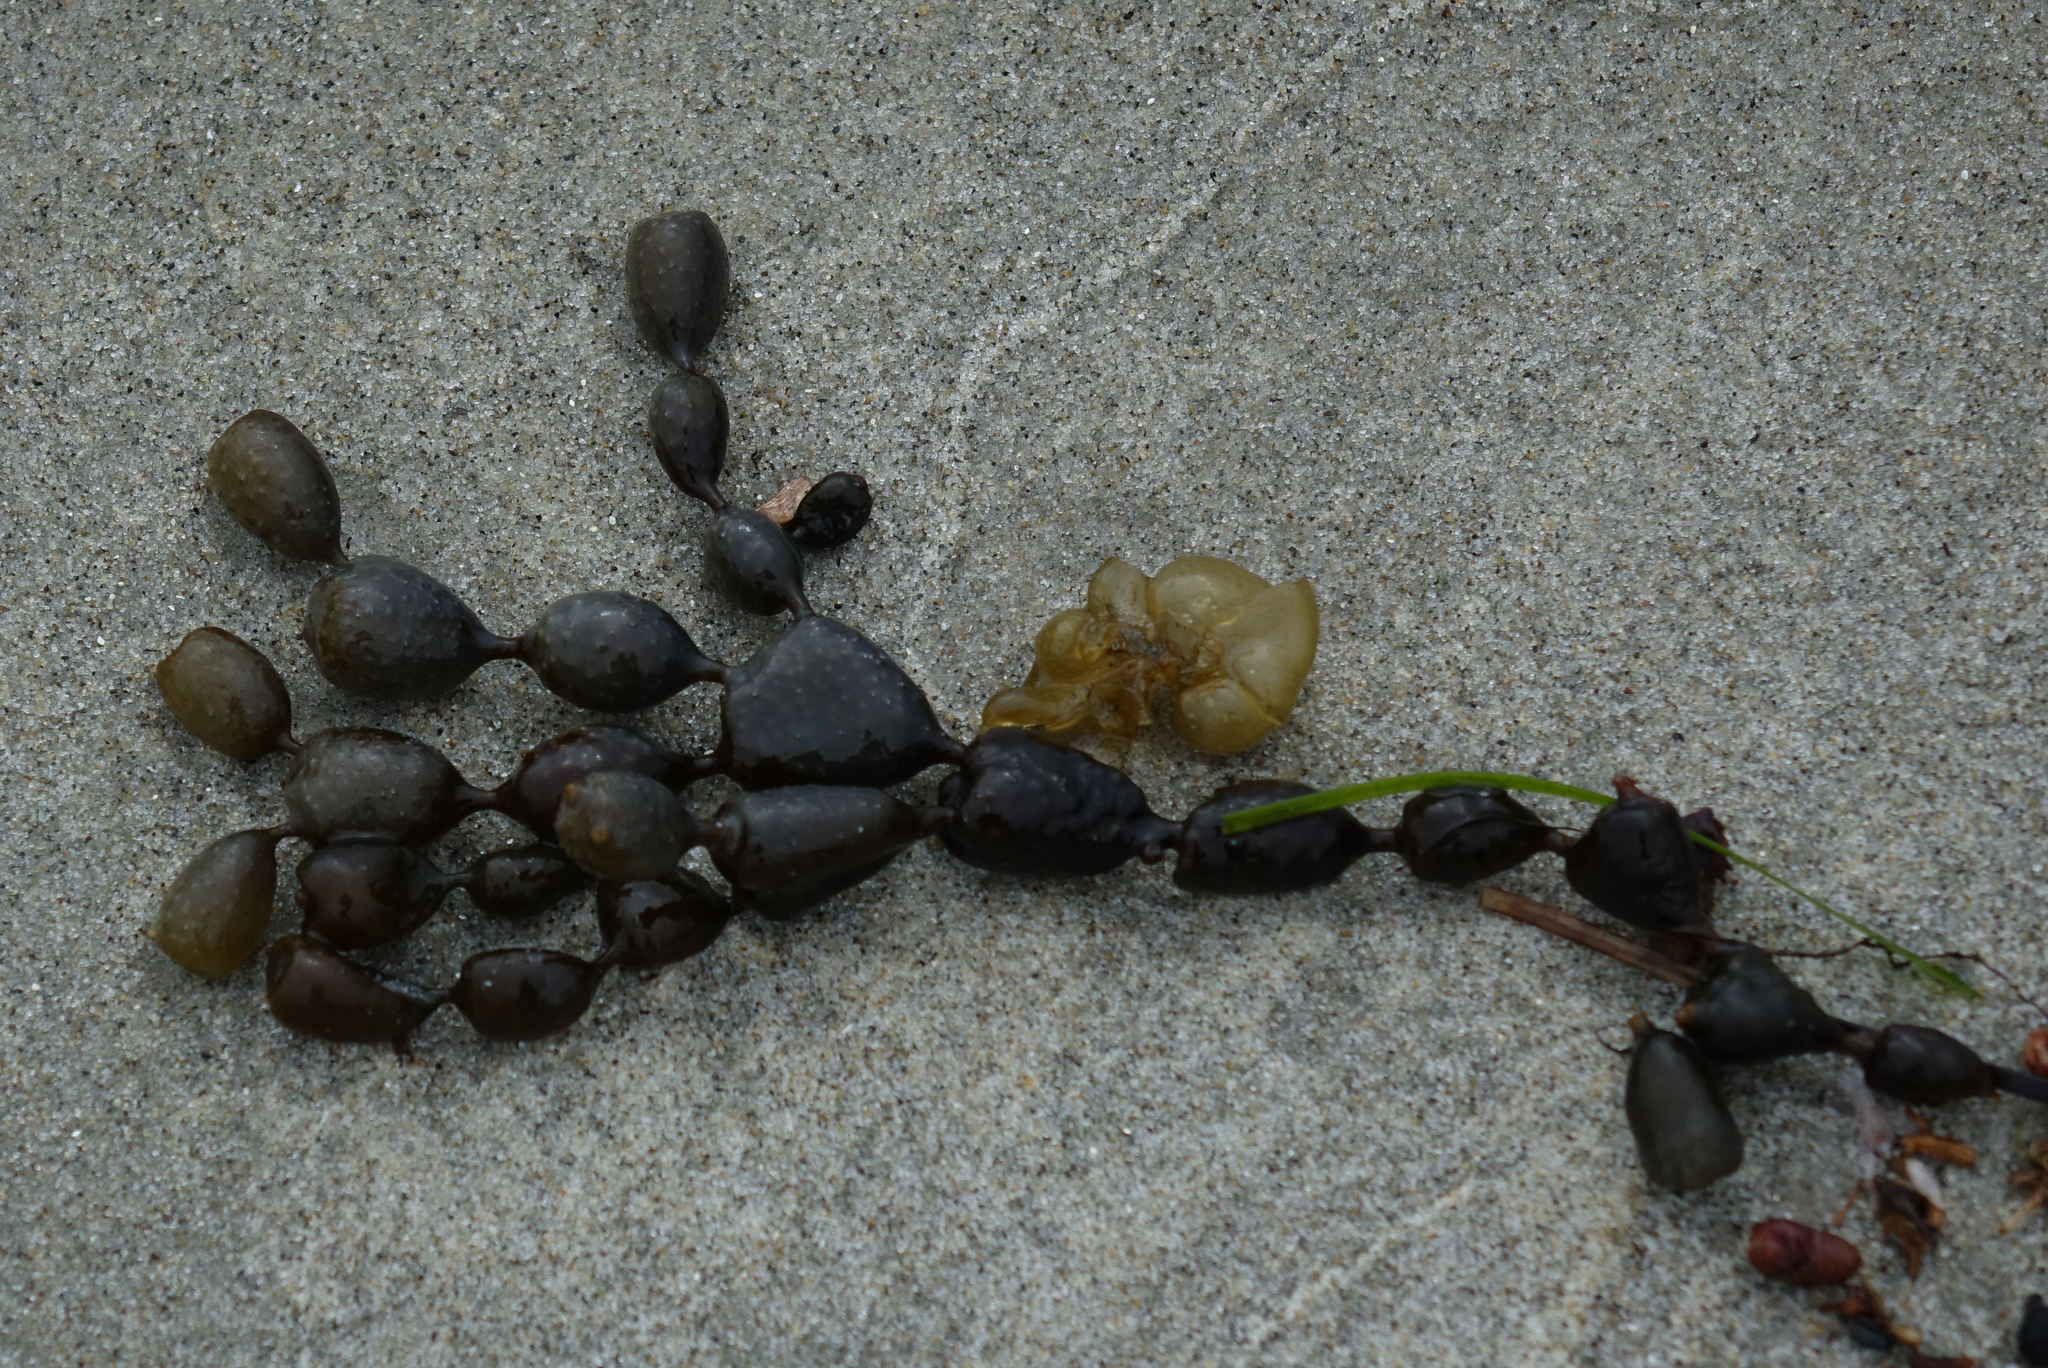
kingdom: Chromista
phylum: Ochrophyta
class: Phaeophyceae
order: Fucales
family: Hormosiraceae
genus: Hormosira
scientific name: Hormosira banksii
